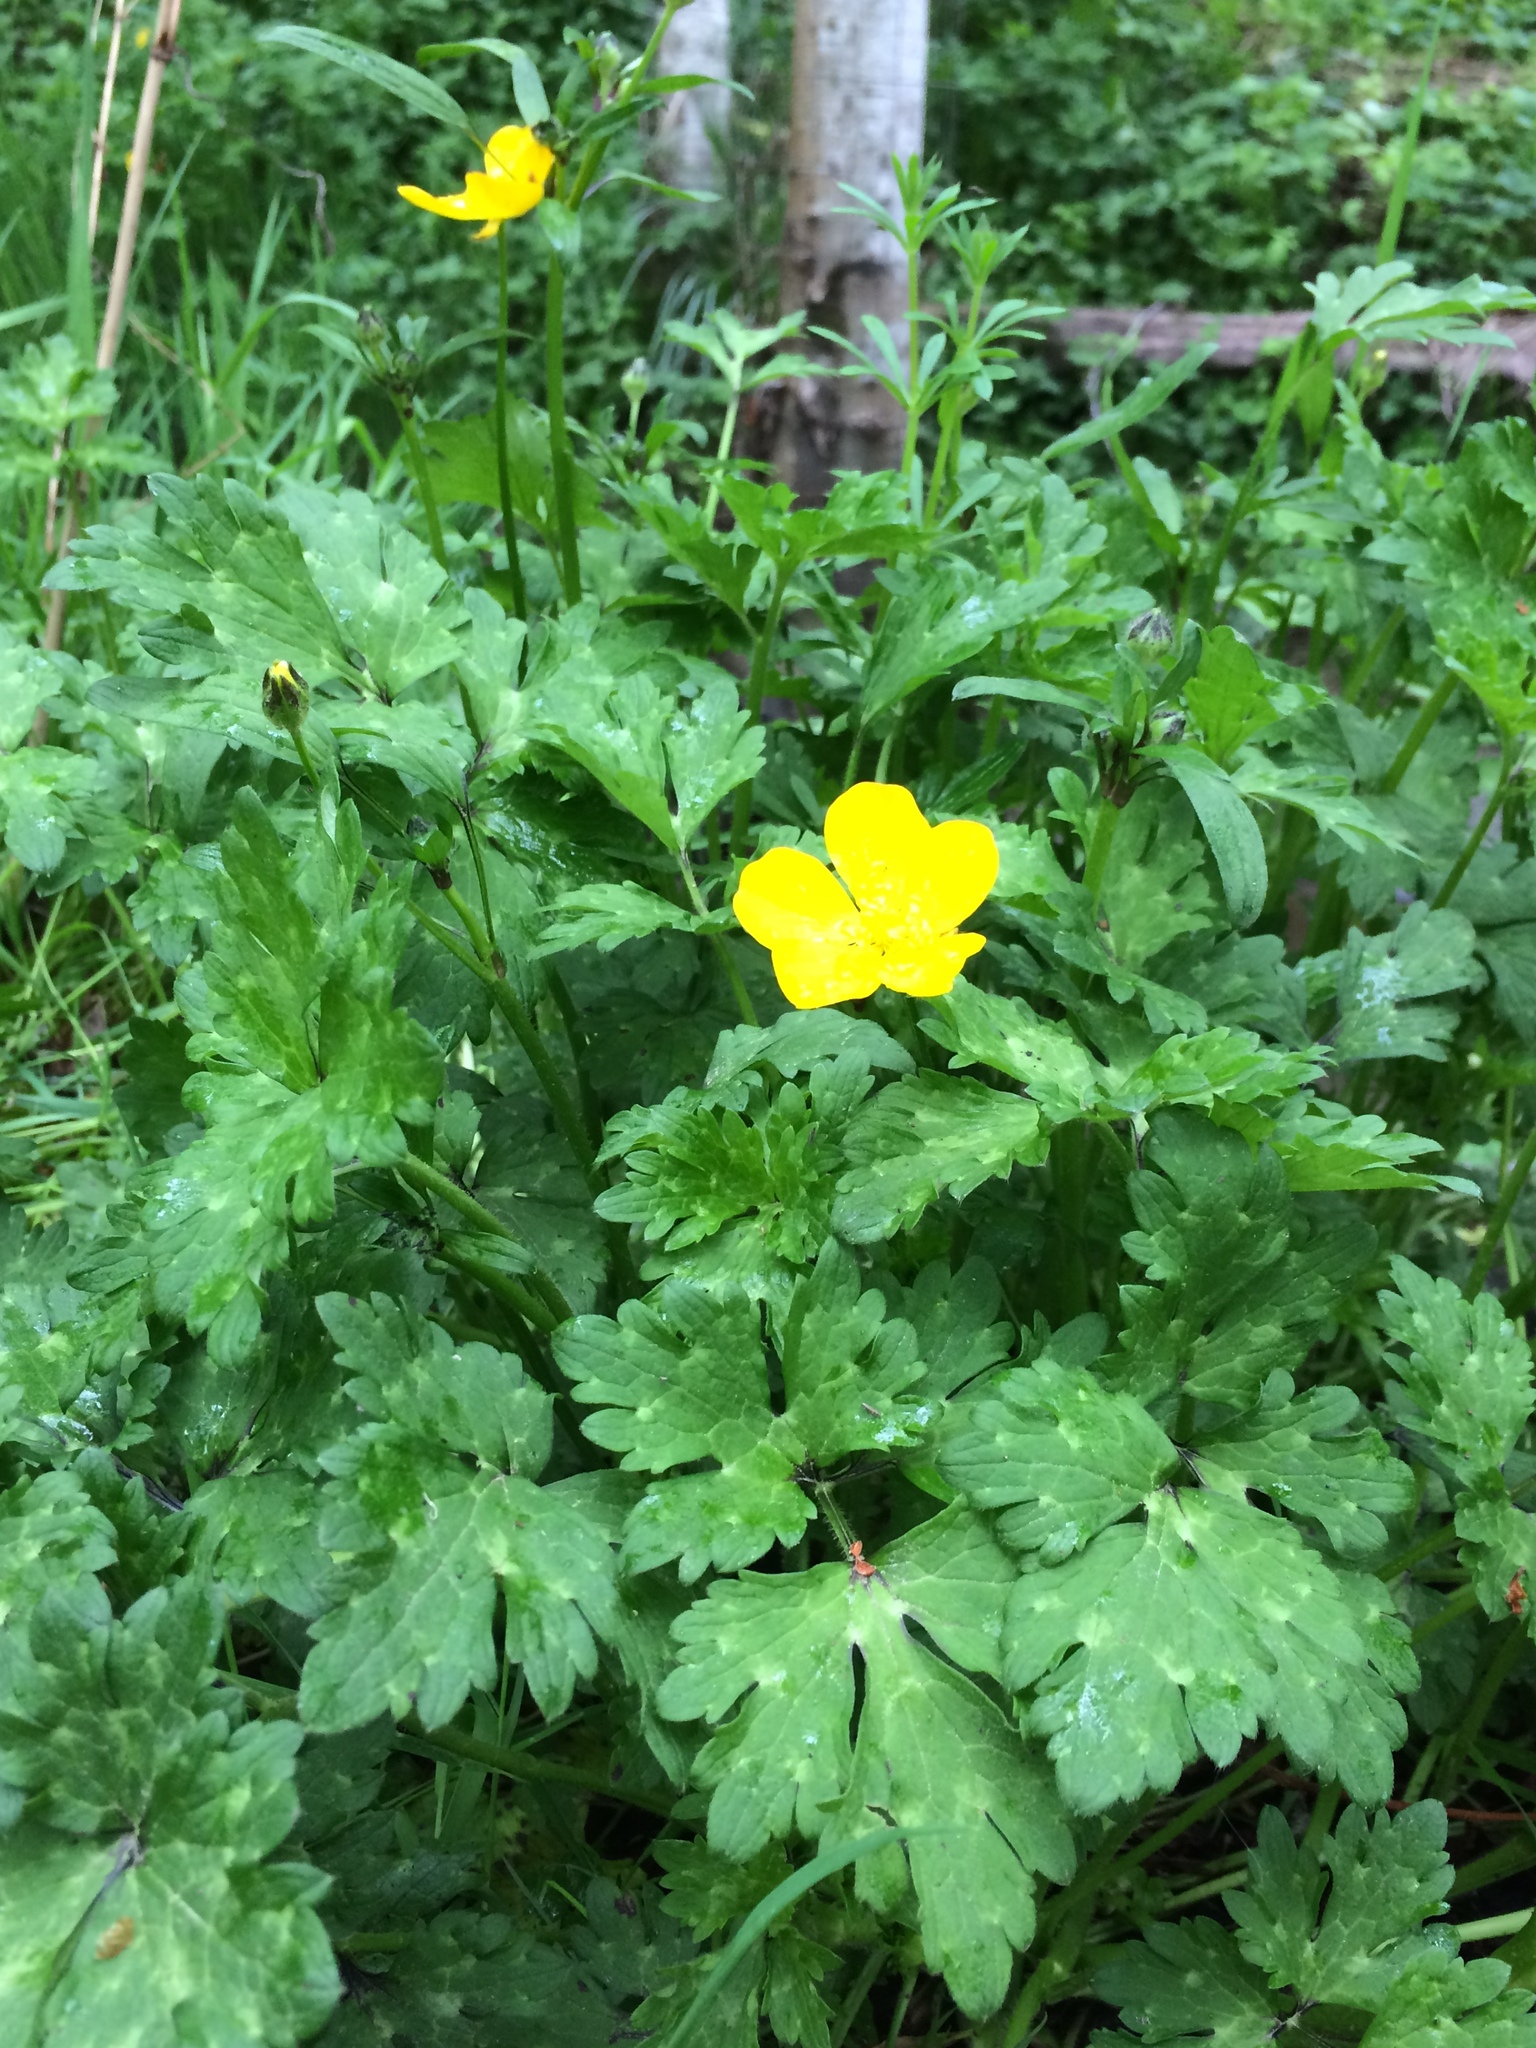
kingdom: Plantae
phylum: Tracheophyta
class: Magnoliopsida
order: Ranunculales
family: Ranunculaceae
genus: Ranunculus
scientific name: Ranunculus repens
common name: Creeping buttercup
